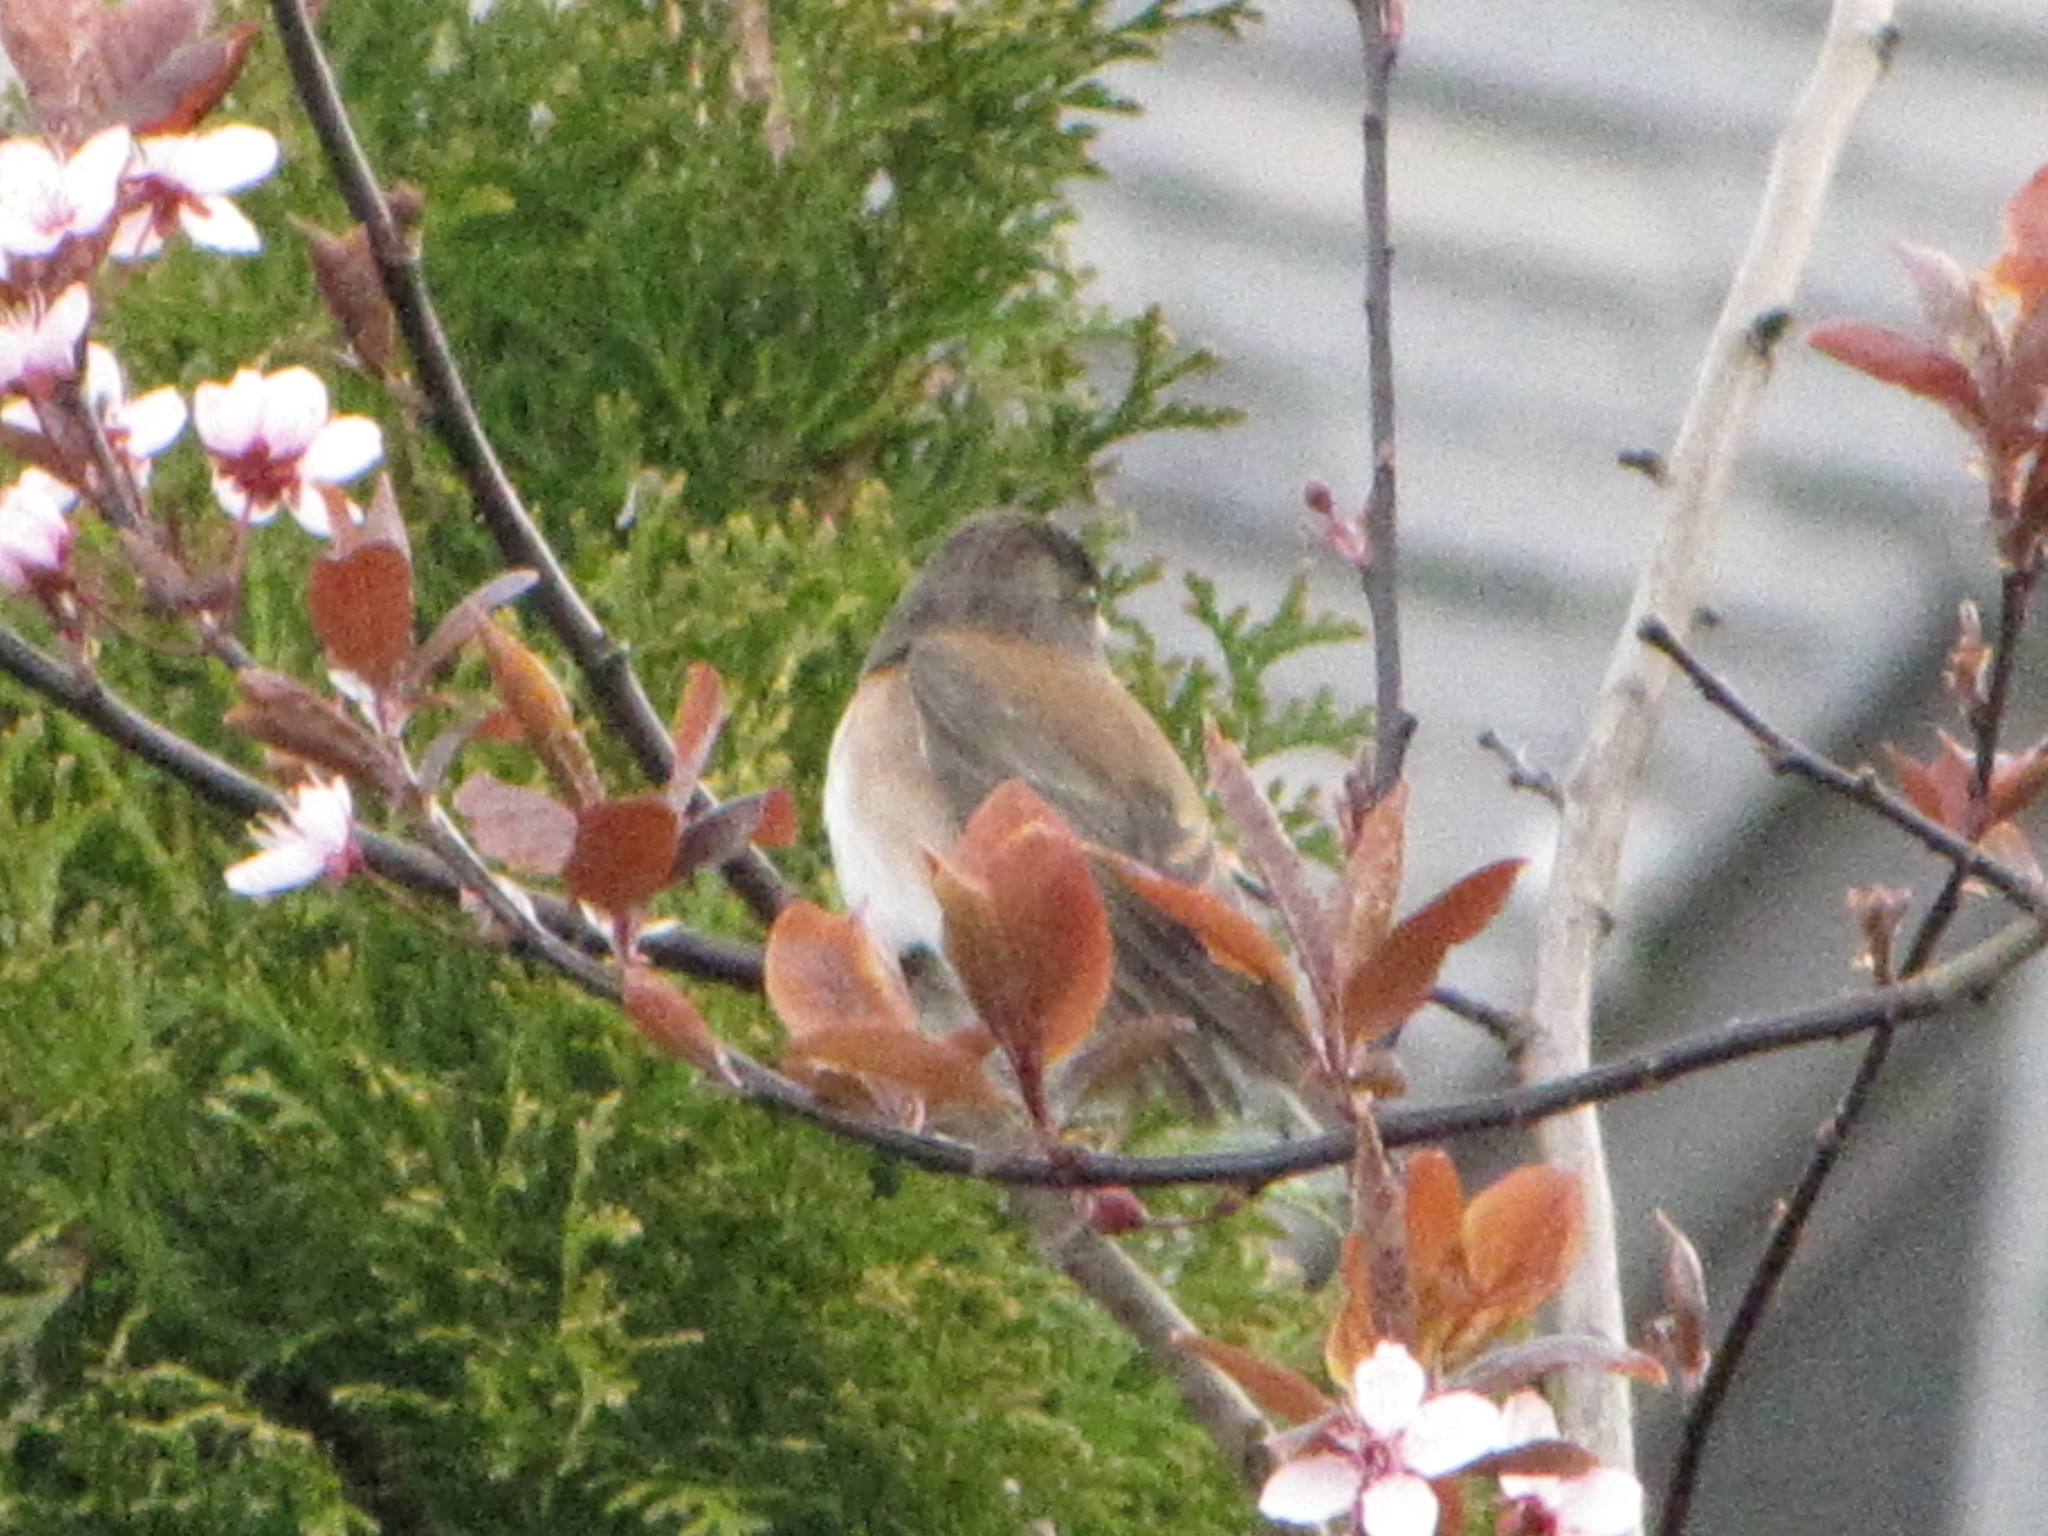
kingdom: Animalia
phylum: Chordata
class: Aves
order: Passeriformes
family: Passerellidae
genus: Junco
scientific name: Junco hyemalis
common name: Dark-eyed junco
